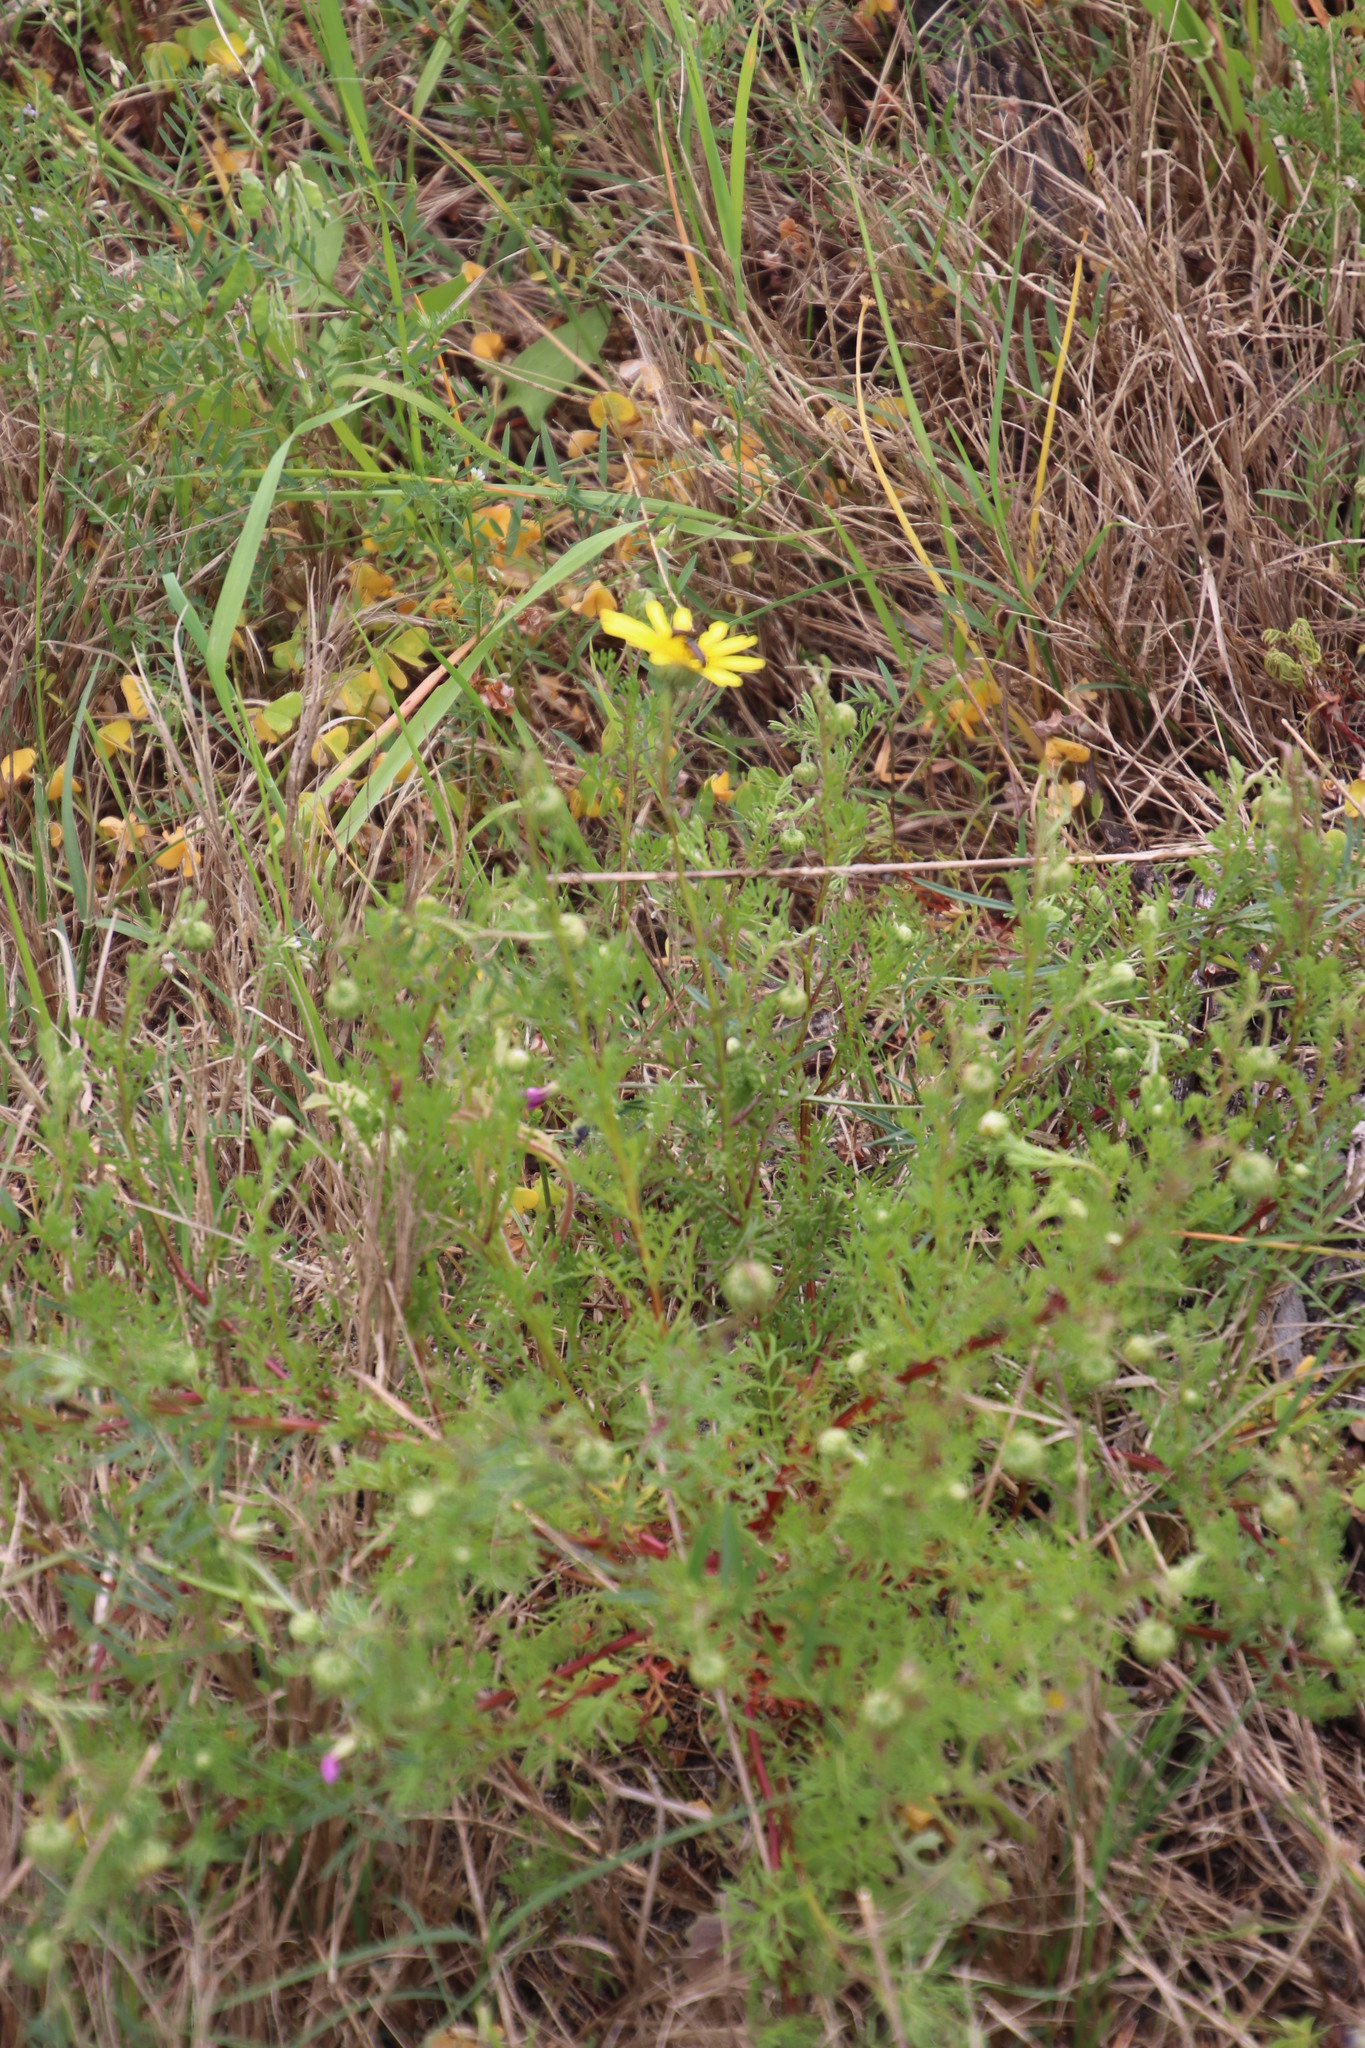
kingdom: Plantae
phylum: Tracheophyta
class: Magnoliopsida
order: Asterales
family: Asteraceae
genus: Ursinia
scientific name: Ursinia anthemoides
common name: Ursinia
